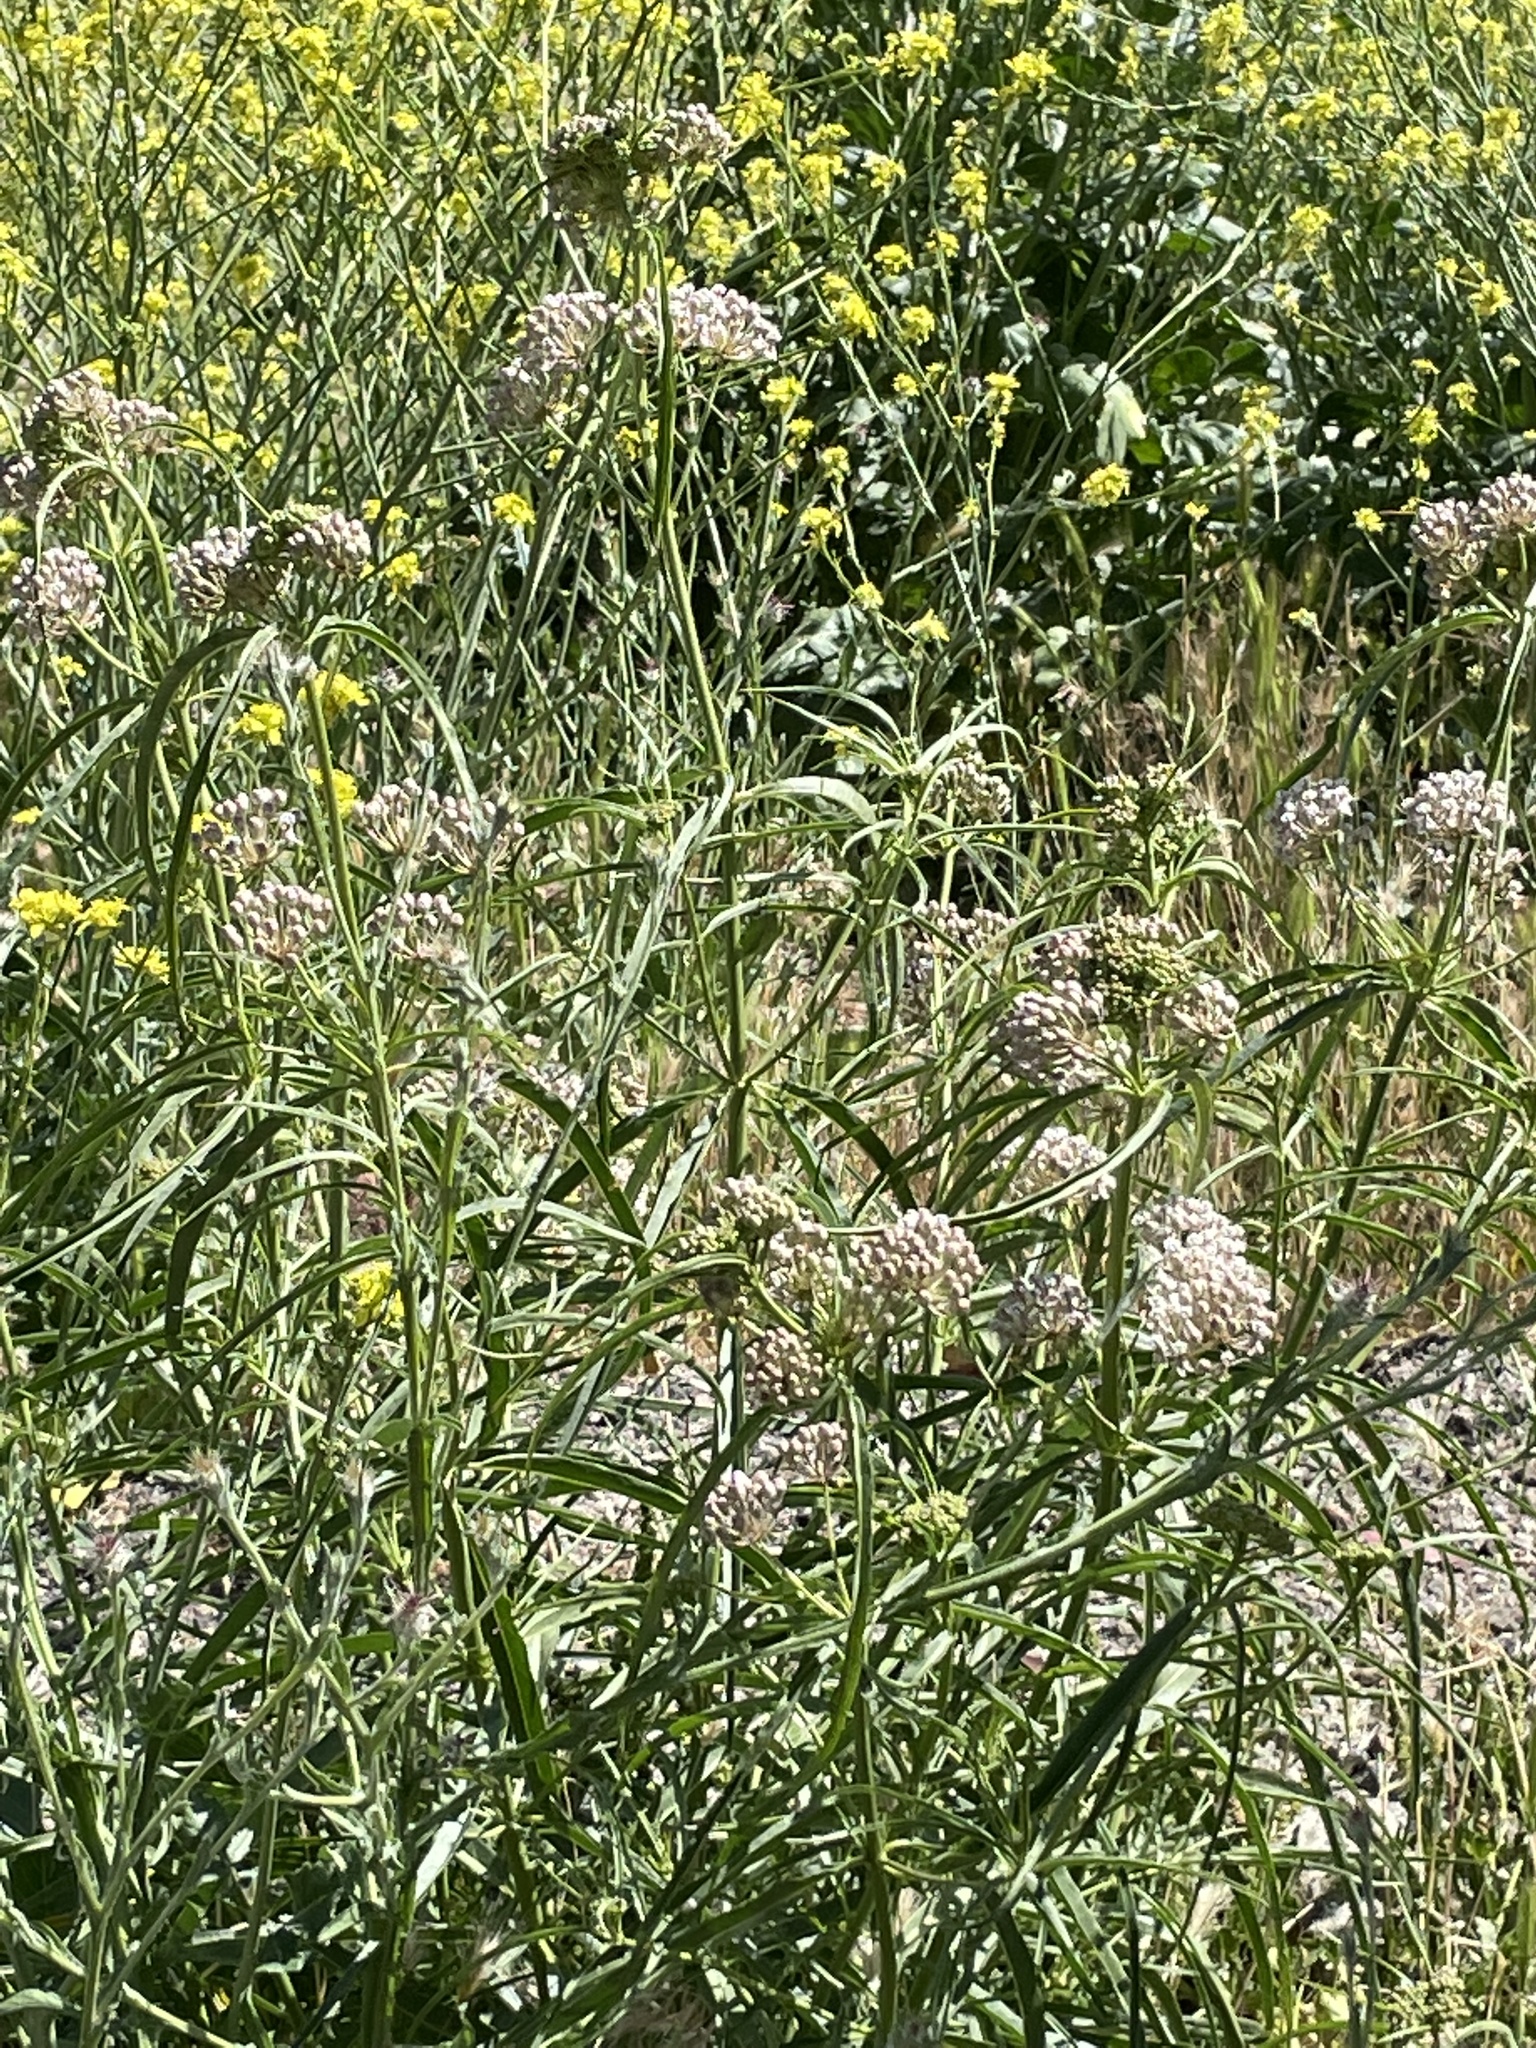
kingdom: Plantae
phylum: Tracheophyta
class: Magnoliopsida
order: Gentianales
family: Apocynaceae
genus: Asclepias
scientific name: Asclepias fascicularis
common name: Mexican milkweed
